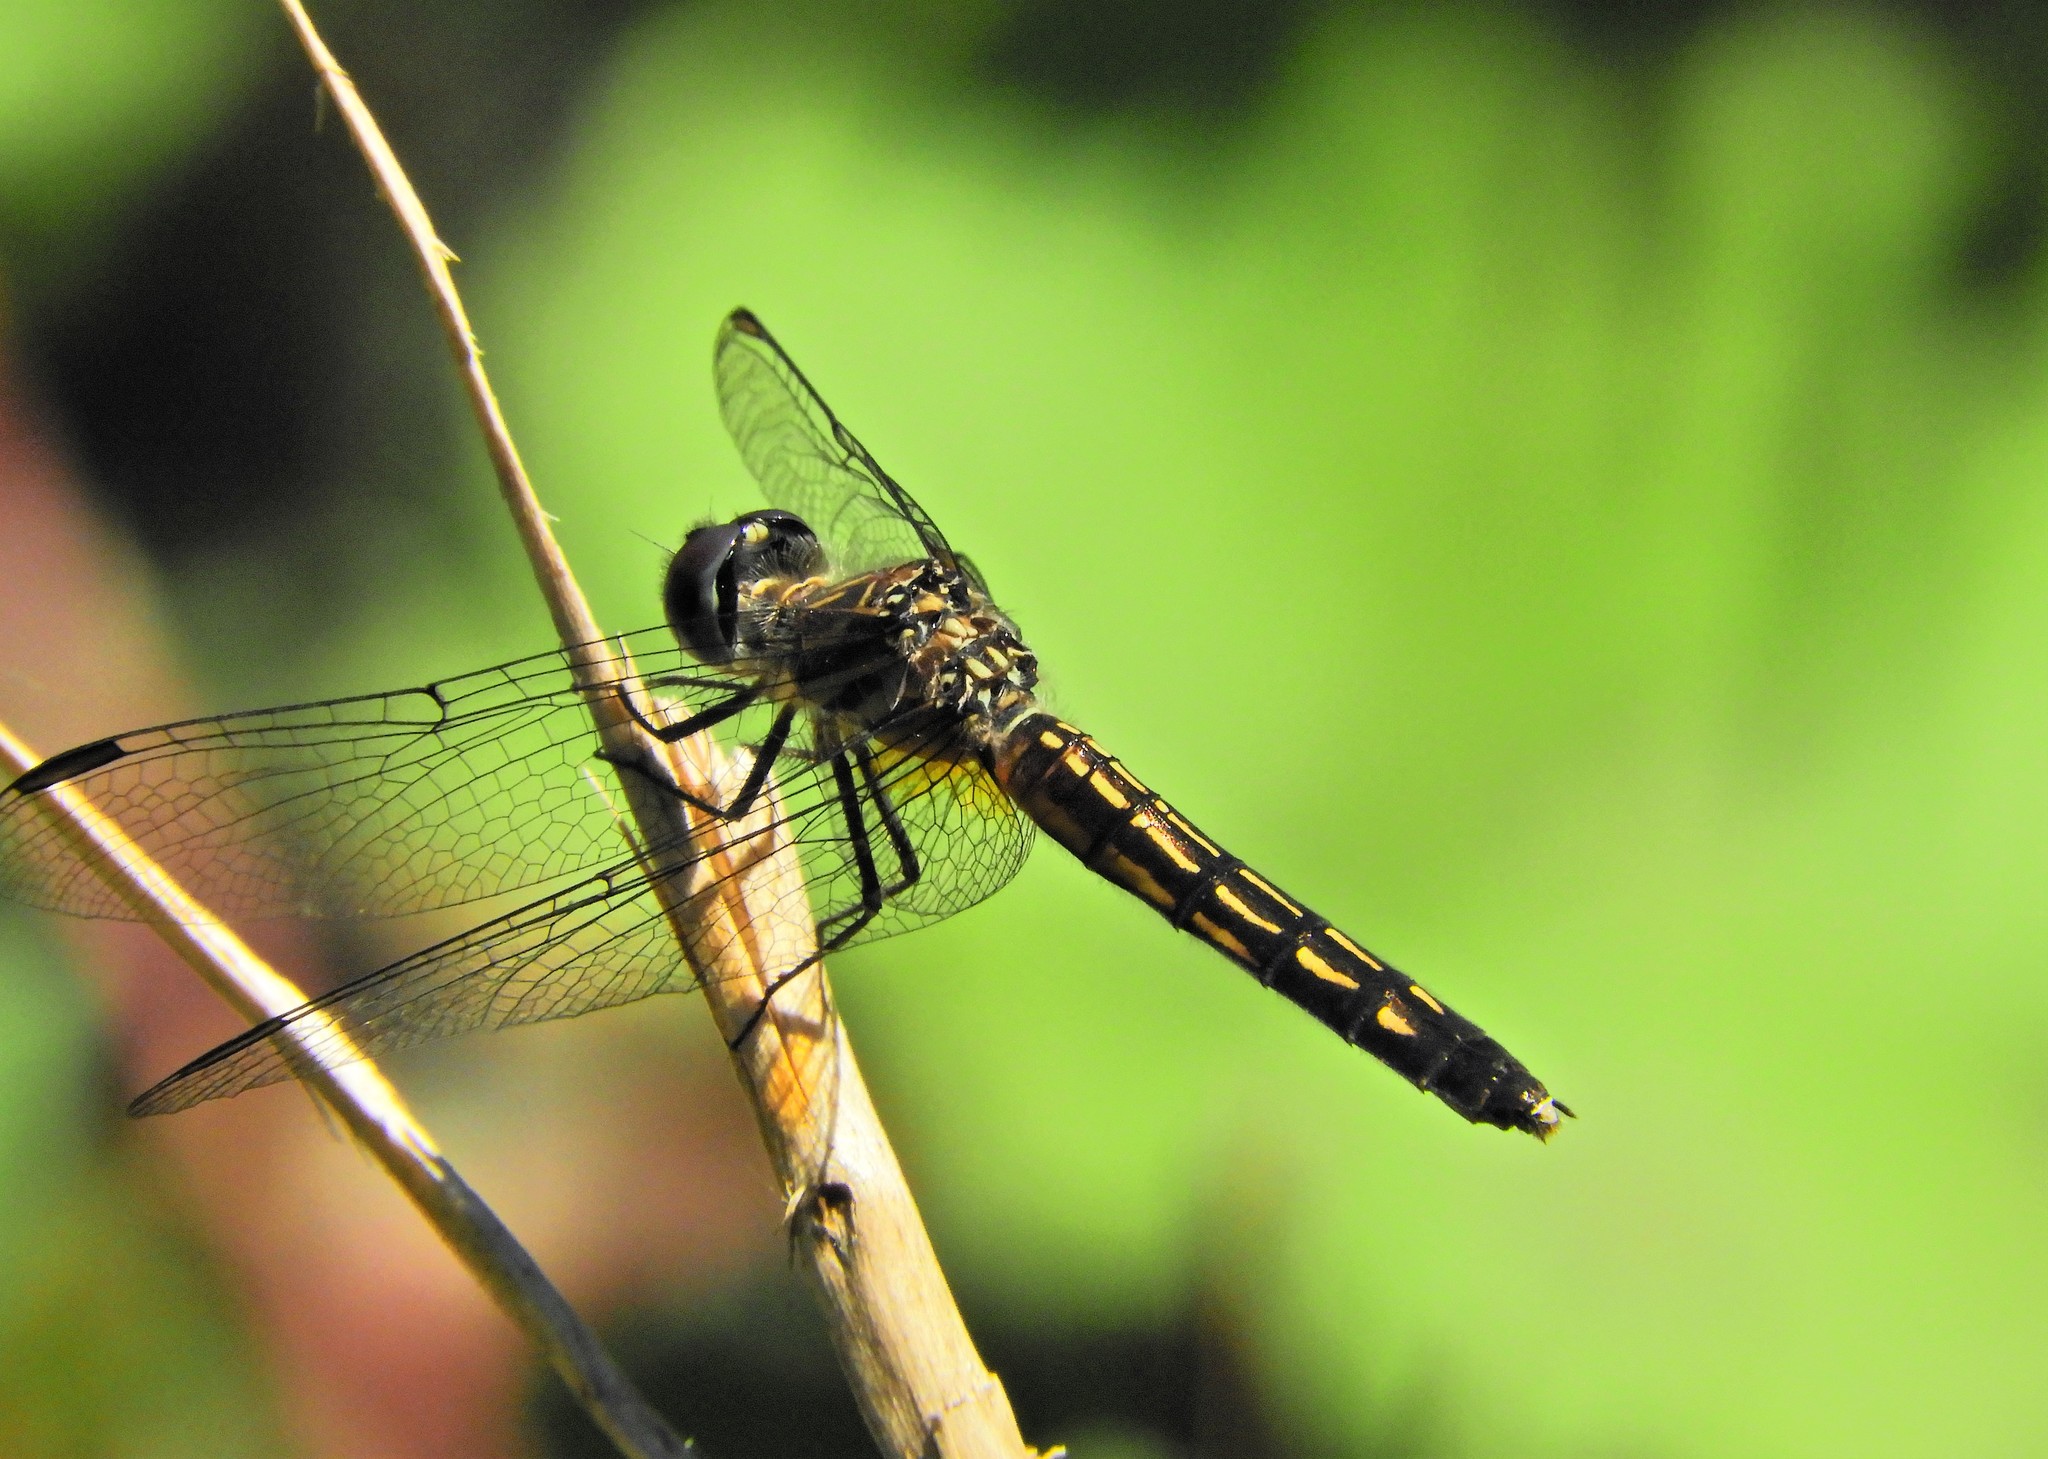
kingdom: Animalia
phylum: Arthropoda
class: Insecta
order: Odonata
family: Libellulidae
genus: Pachydiplax
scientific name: Pachydiplax longipennis
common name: Blue dasher
